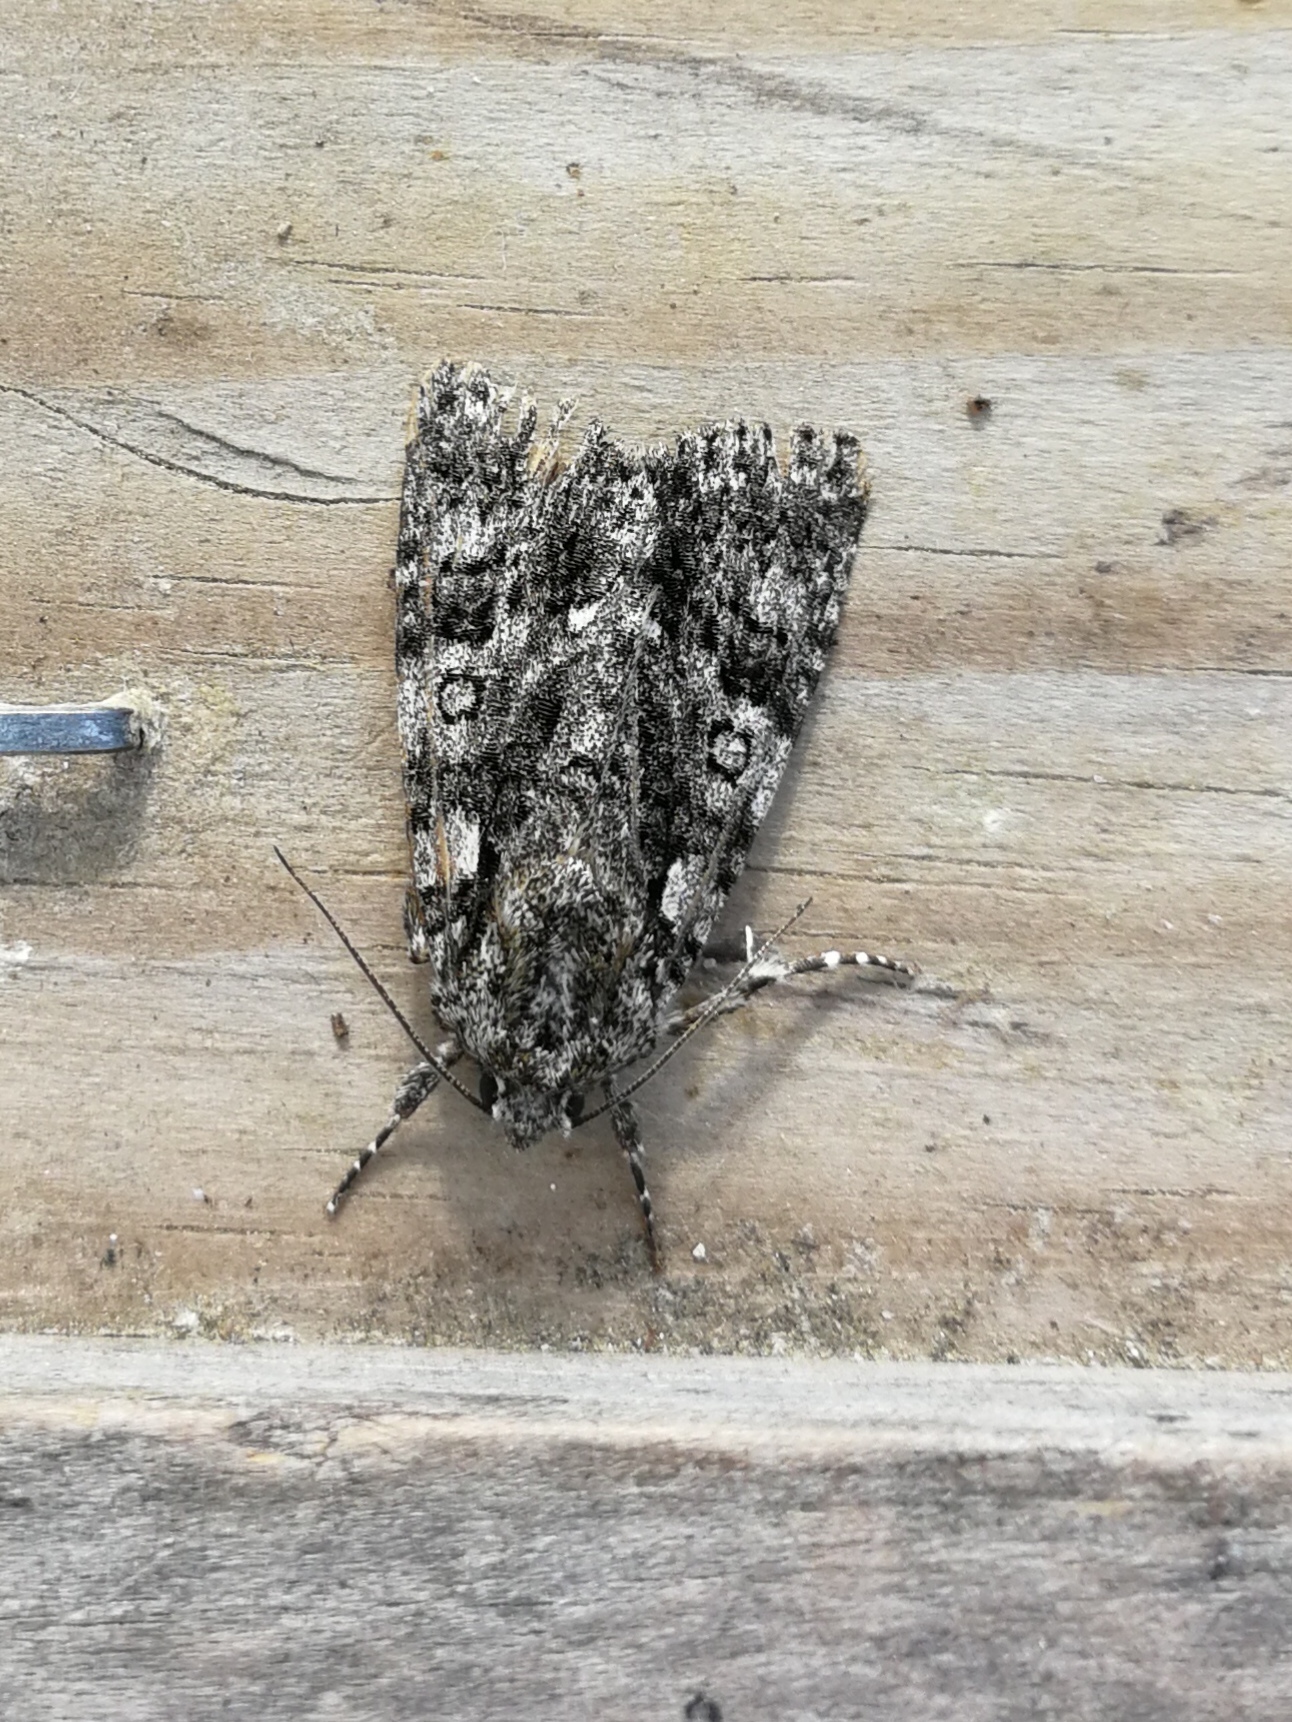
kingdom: Animalia
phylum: Arthropoda
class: Insecta
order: Lepidoptera
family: Noctuidae
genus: Acronicta
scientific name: Acronicta rumicis
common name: Knot grass
